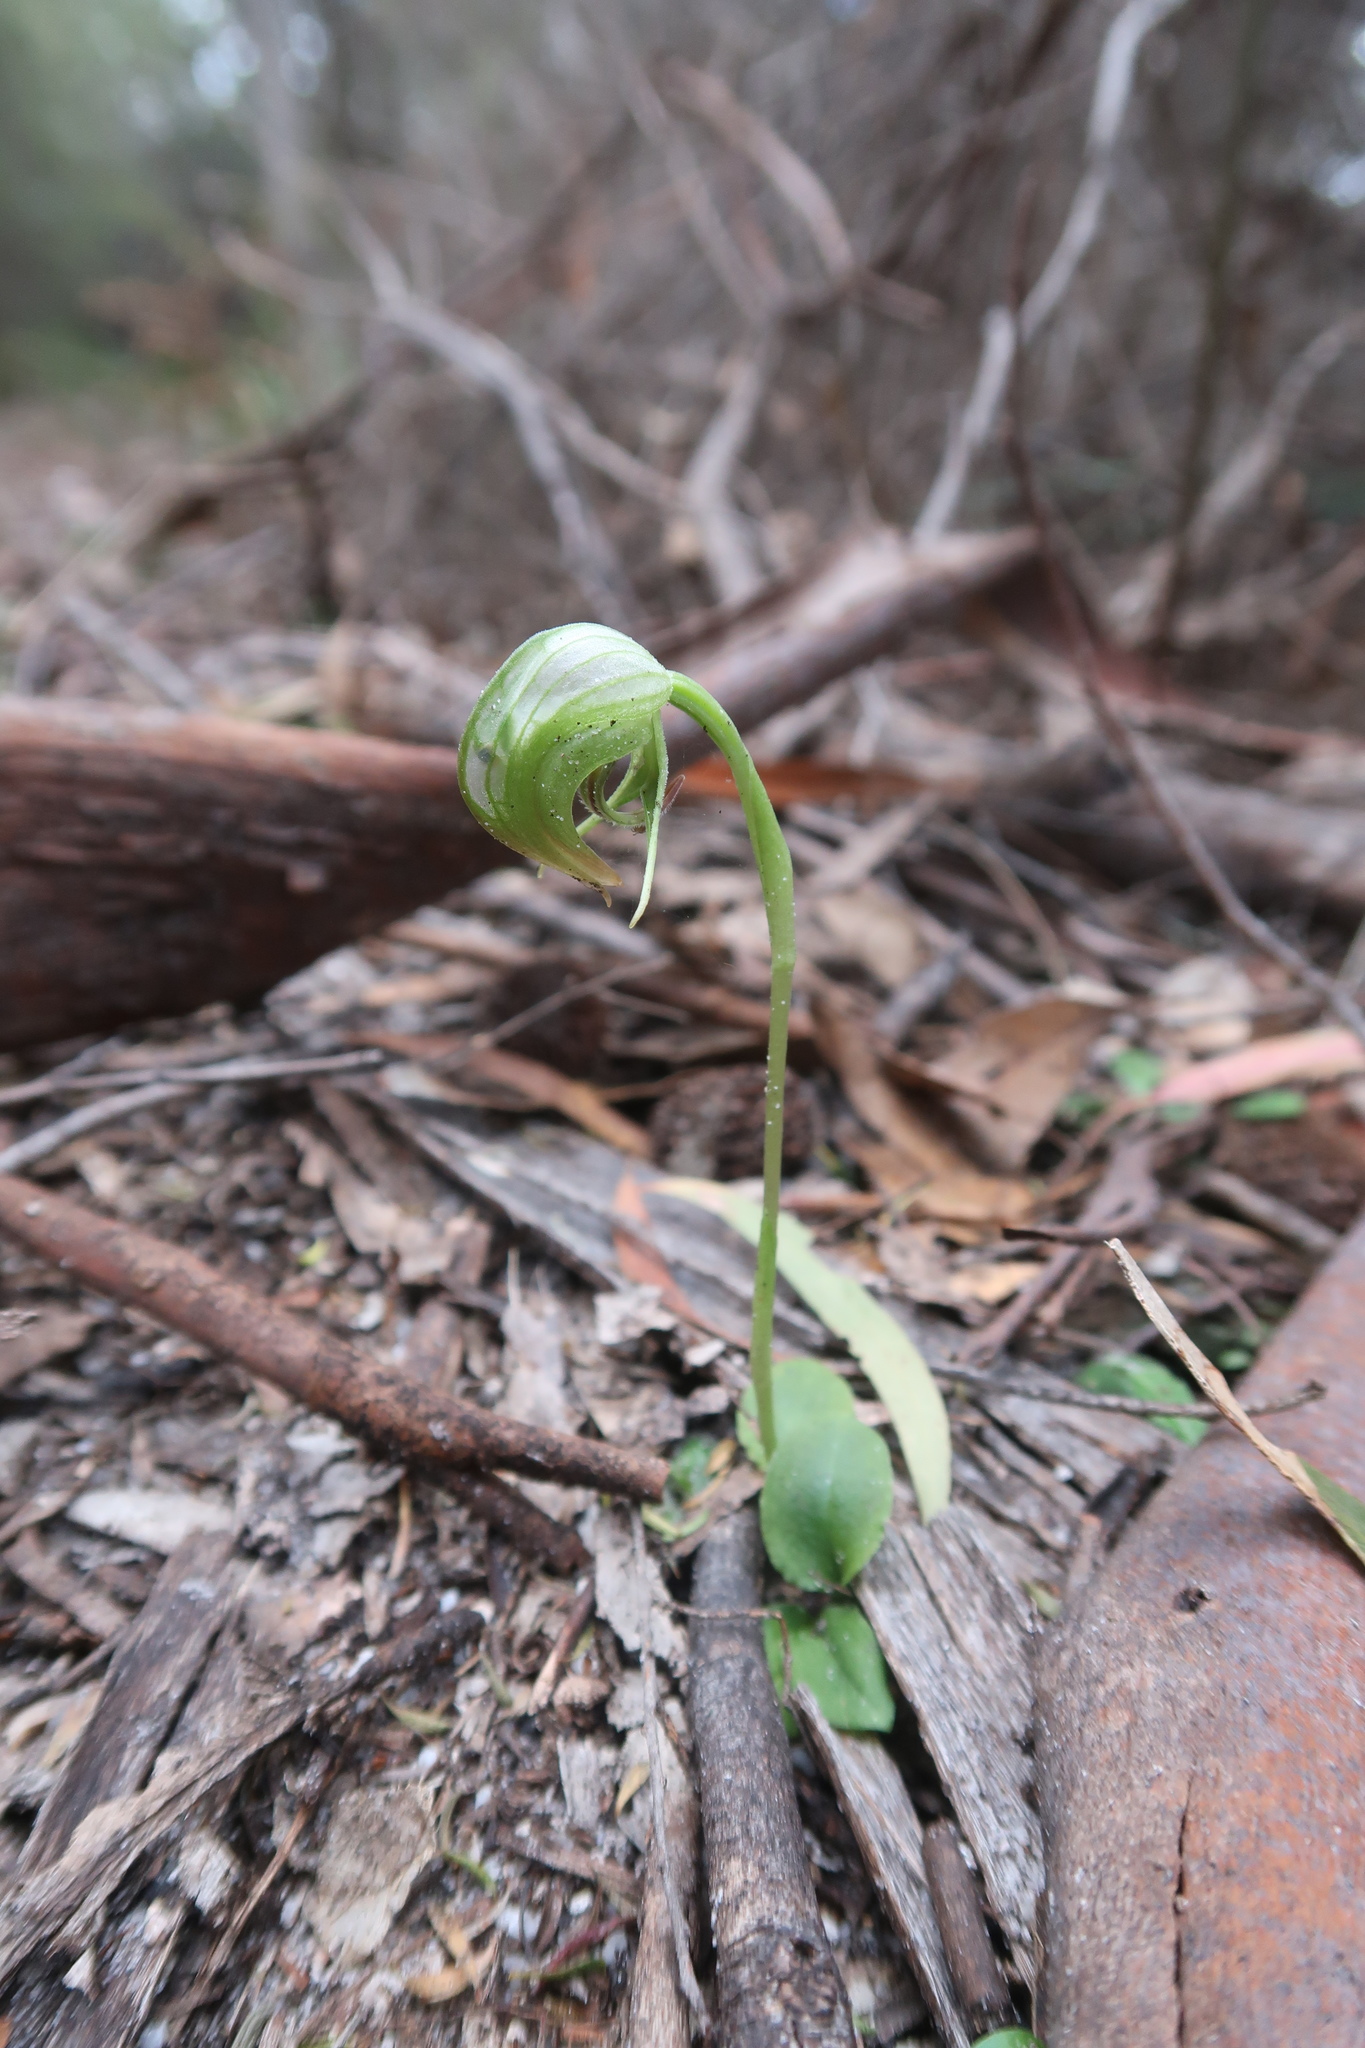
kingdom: Plantae
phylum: Tracheophyta
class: Liliopsida
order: Asparagales
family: Orchidaceae
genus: Pterostylis
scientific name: Pterostylis nutans
